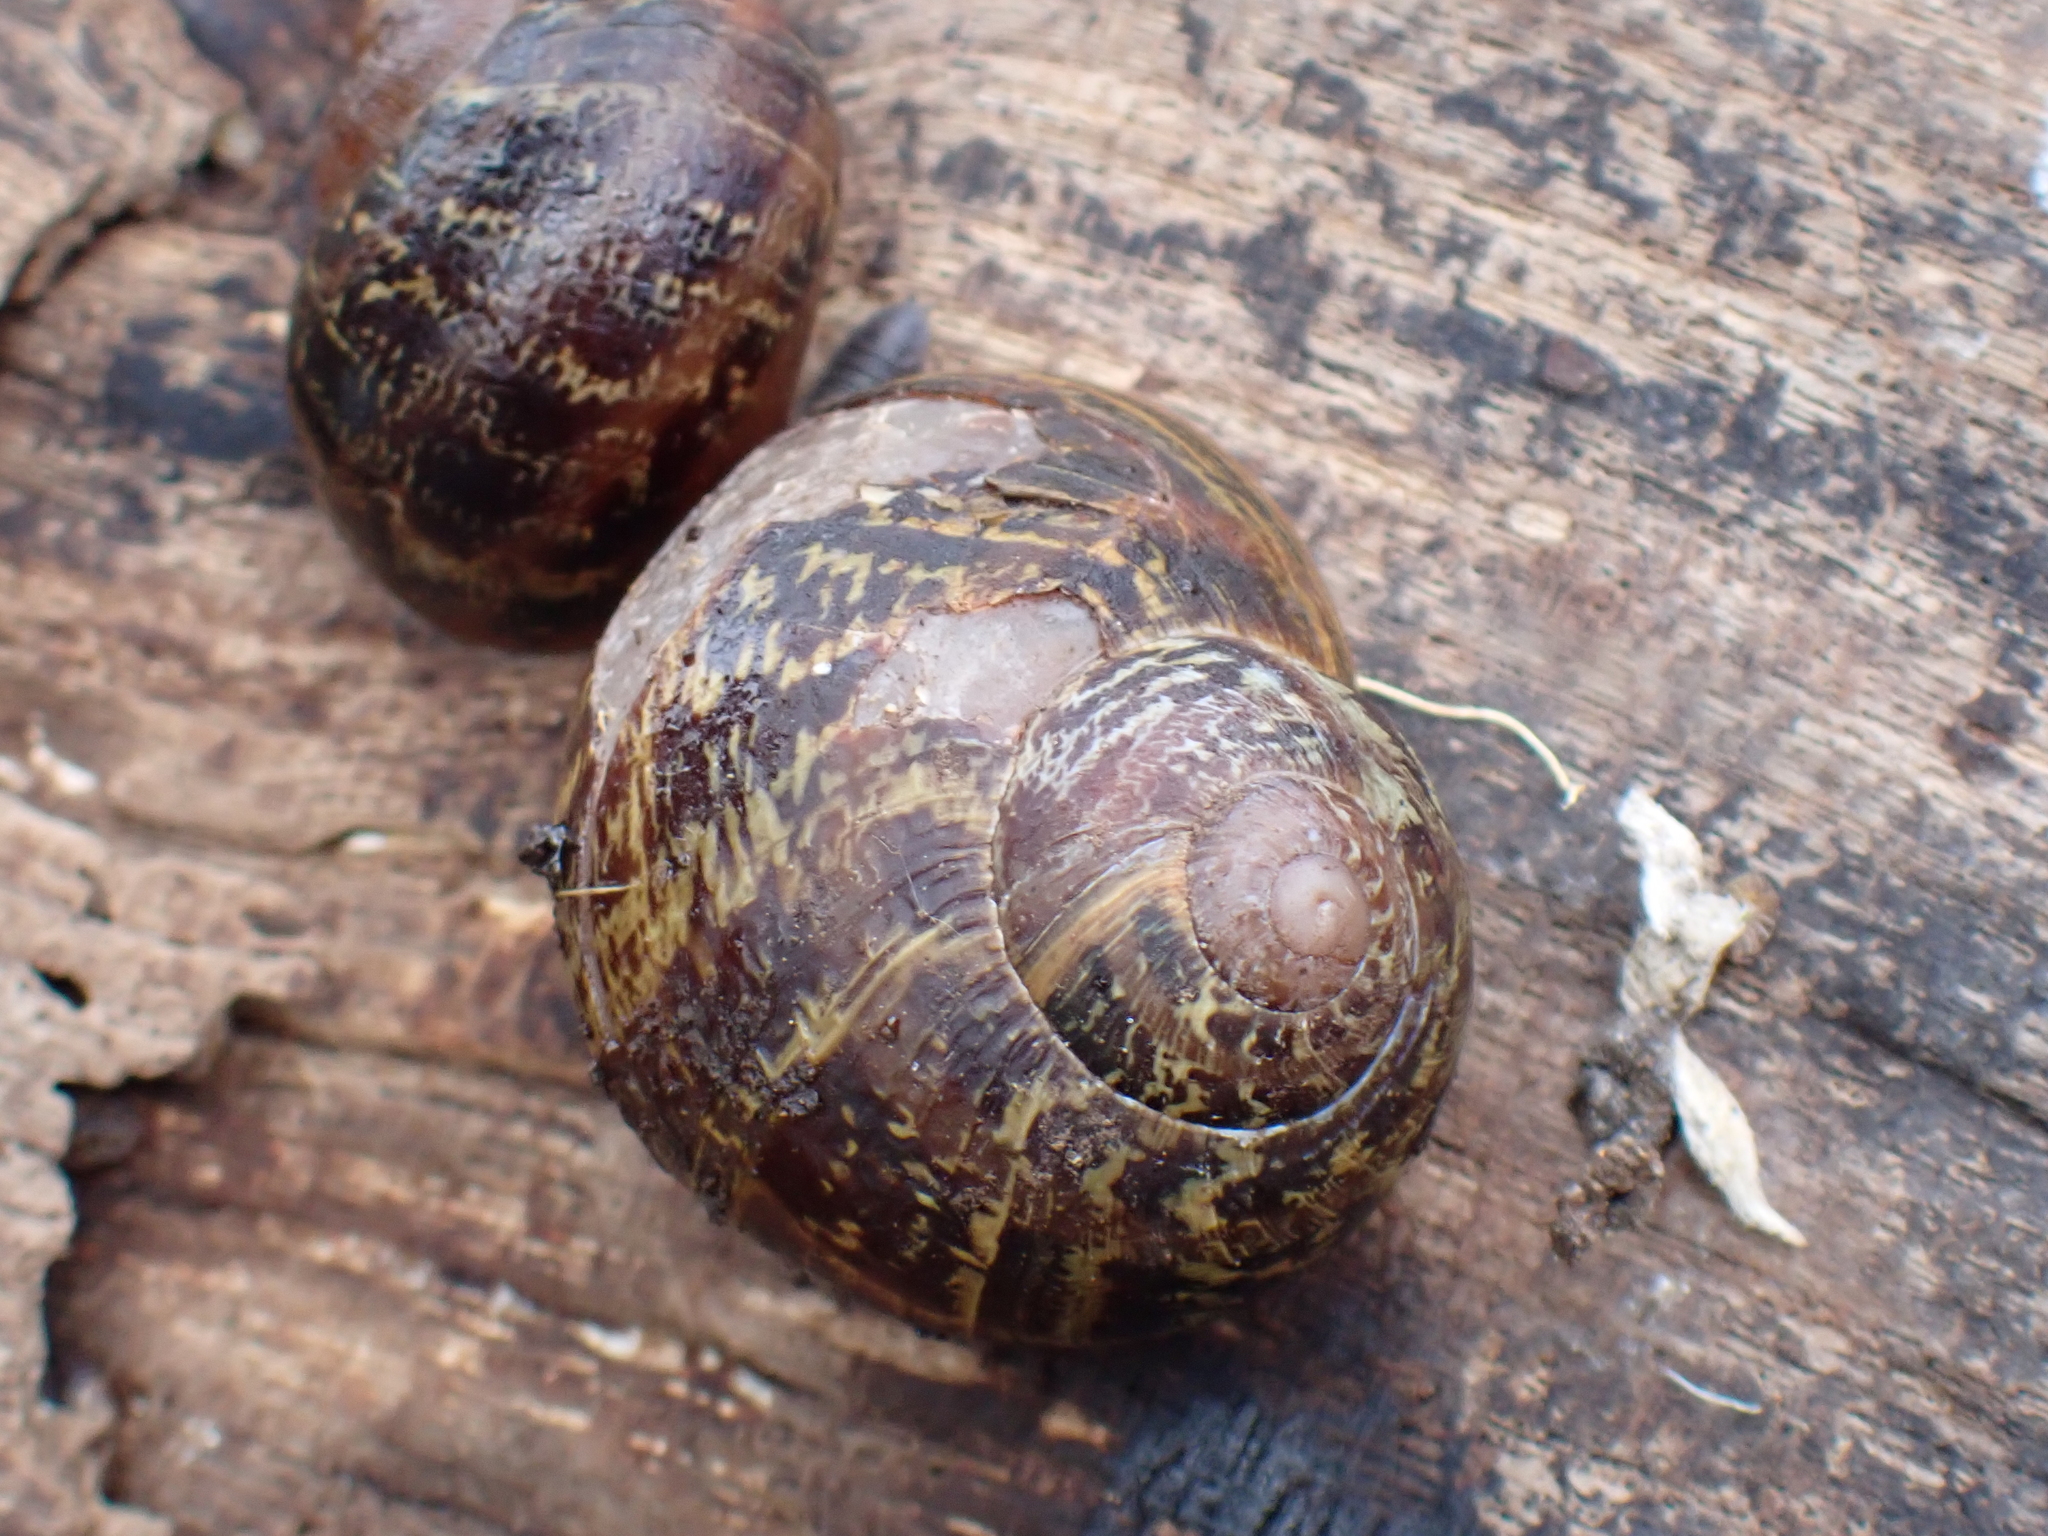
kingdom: Animalia
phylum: Mollusca
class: Gastropoda
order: Stylommatophora
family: Helicidae
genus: Cornu
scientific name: Cornu aspersum
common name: Brown garden snail
